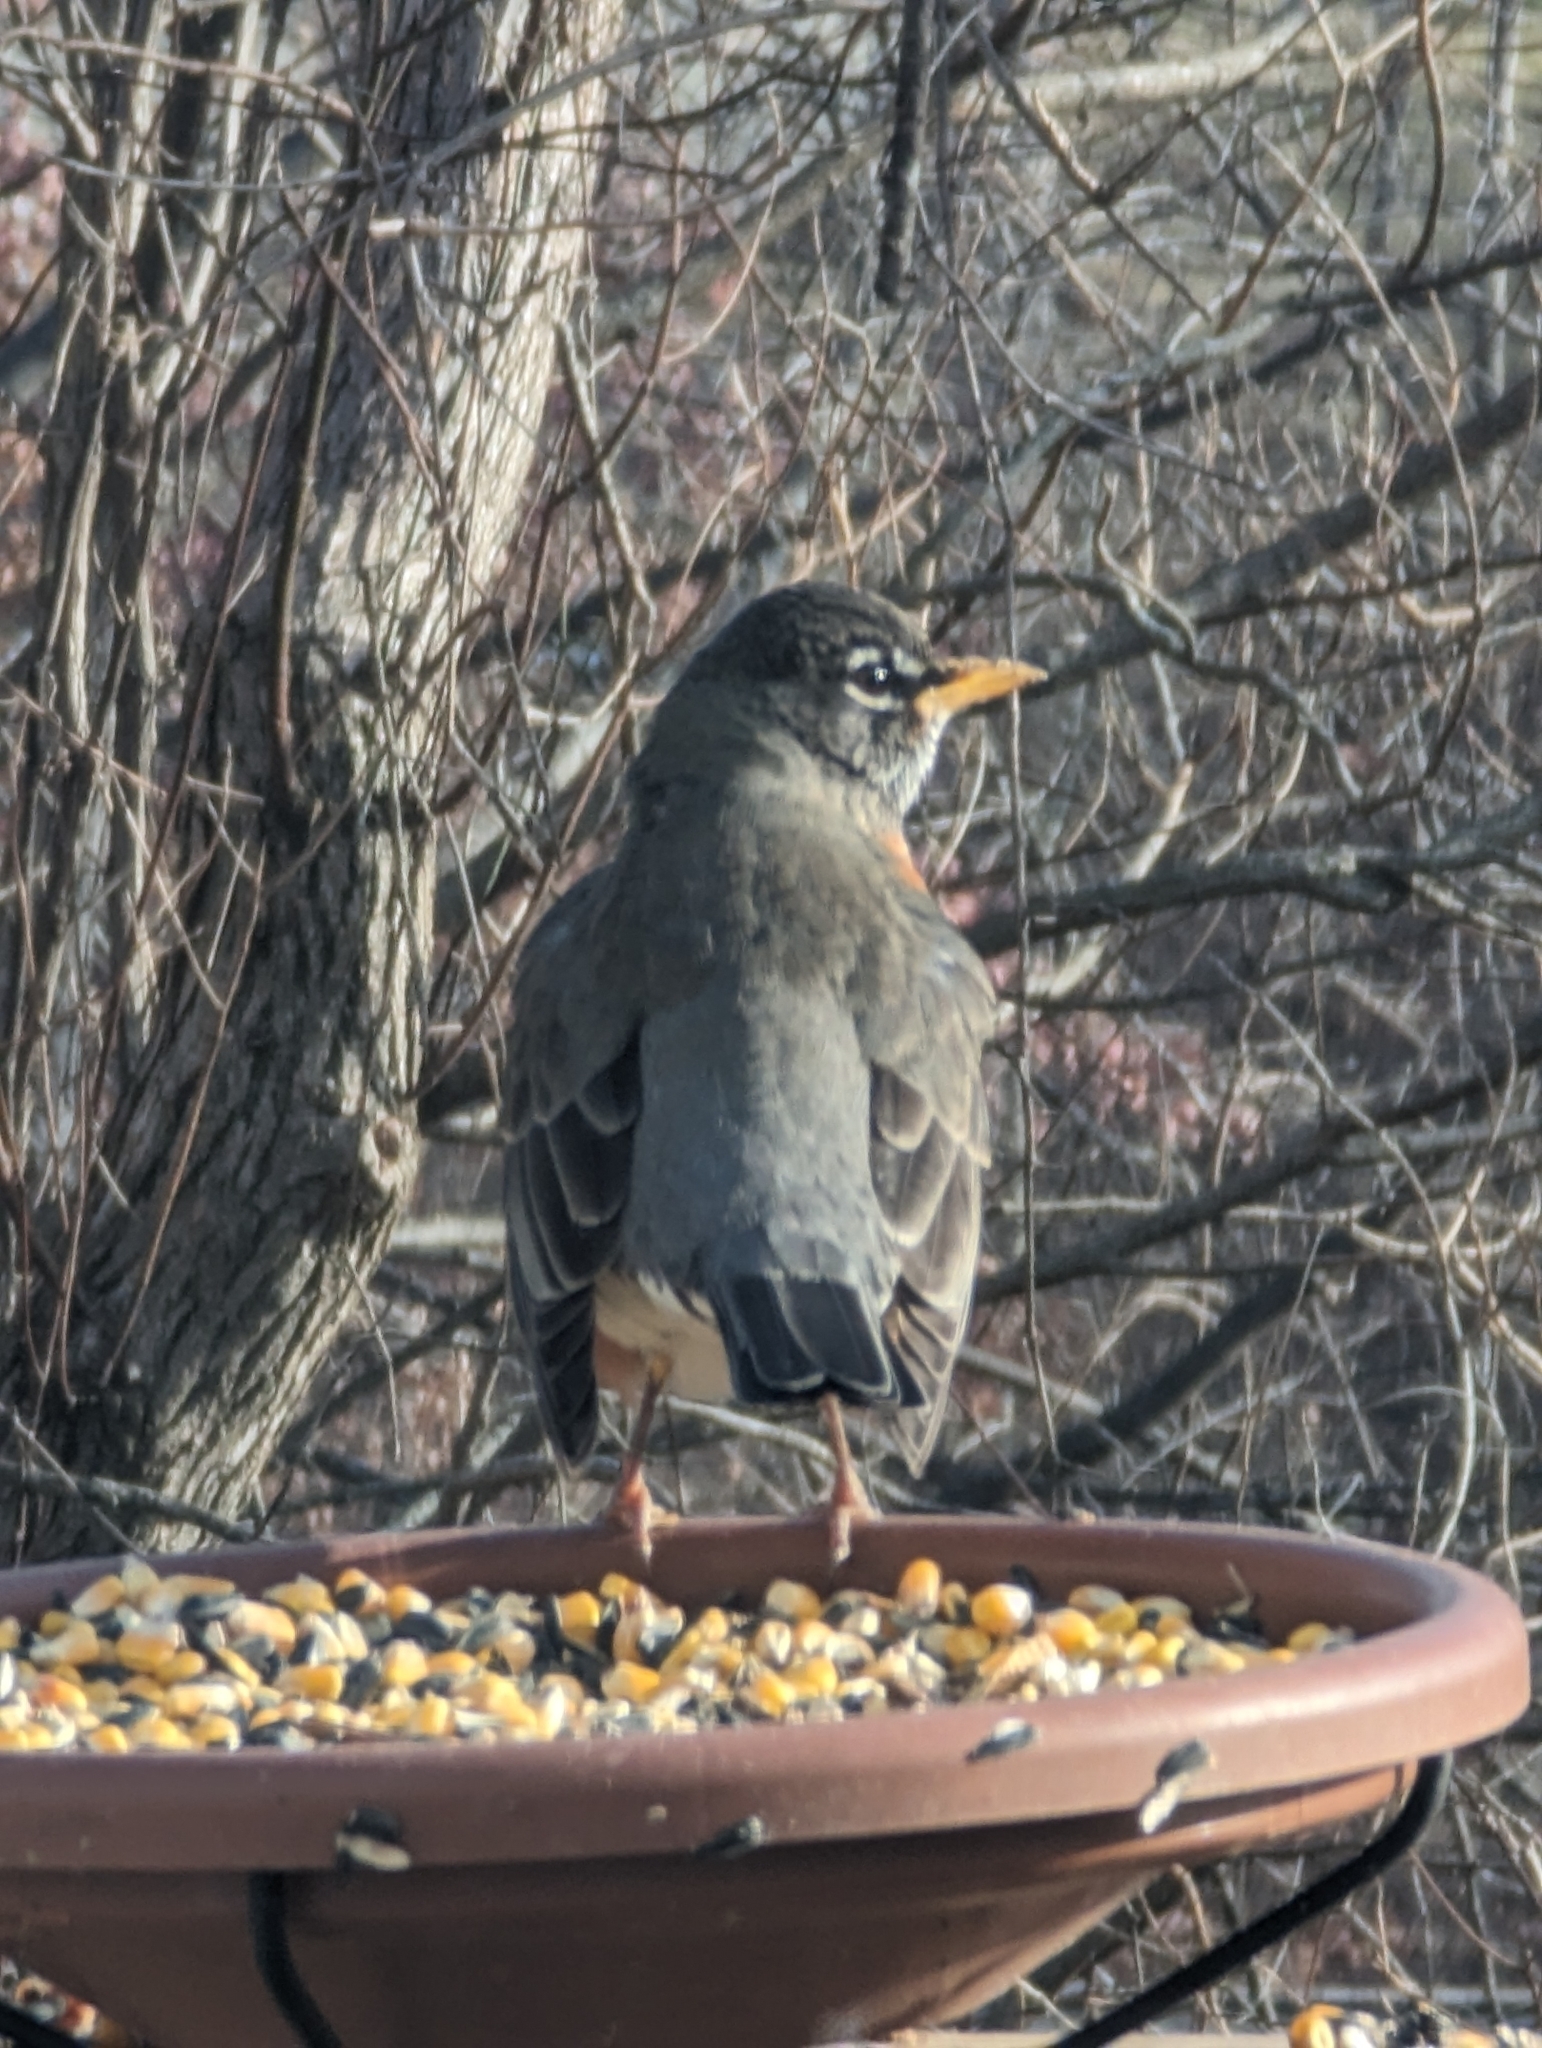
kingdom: Animalia
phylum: Chordata
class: Aves
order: Passeriformes
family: Turdidae
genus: Turdus
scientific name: Turdus migratorius
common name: American robin
